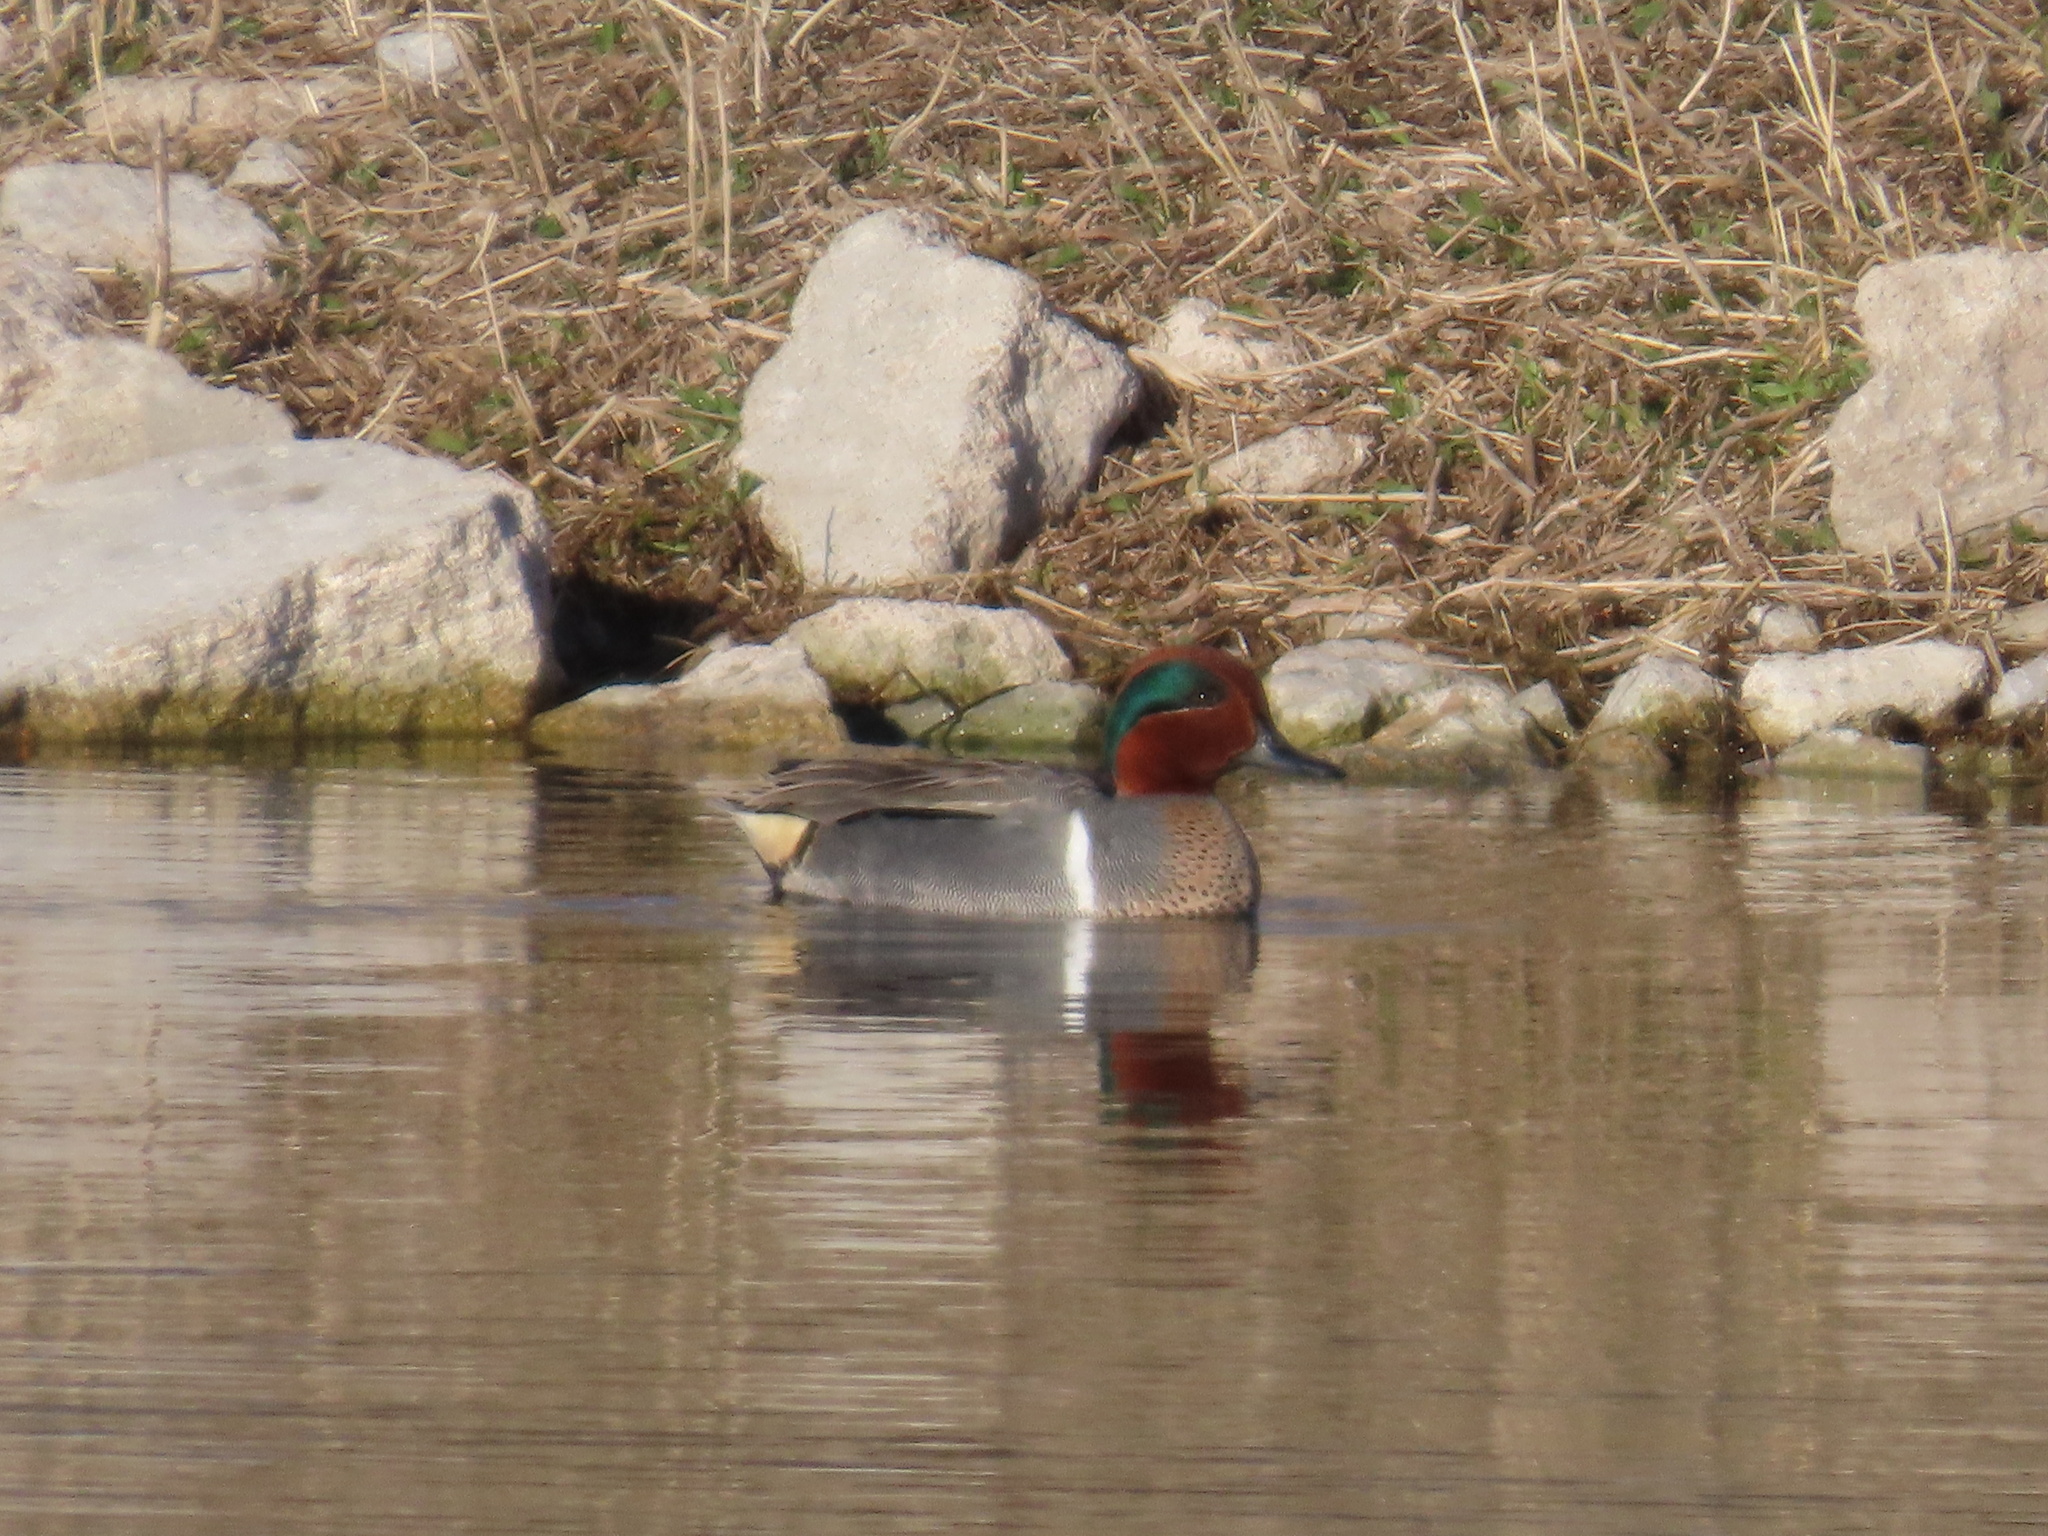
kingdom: Animalia
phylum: Chordata
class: Aves
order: Anseriformes
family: Anatidae
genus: Anas
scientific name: Anas crecca
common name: Eurasian teal
